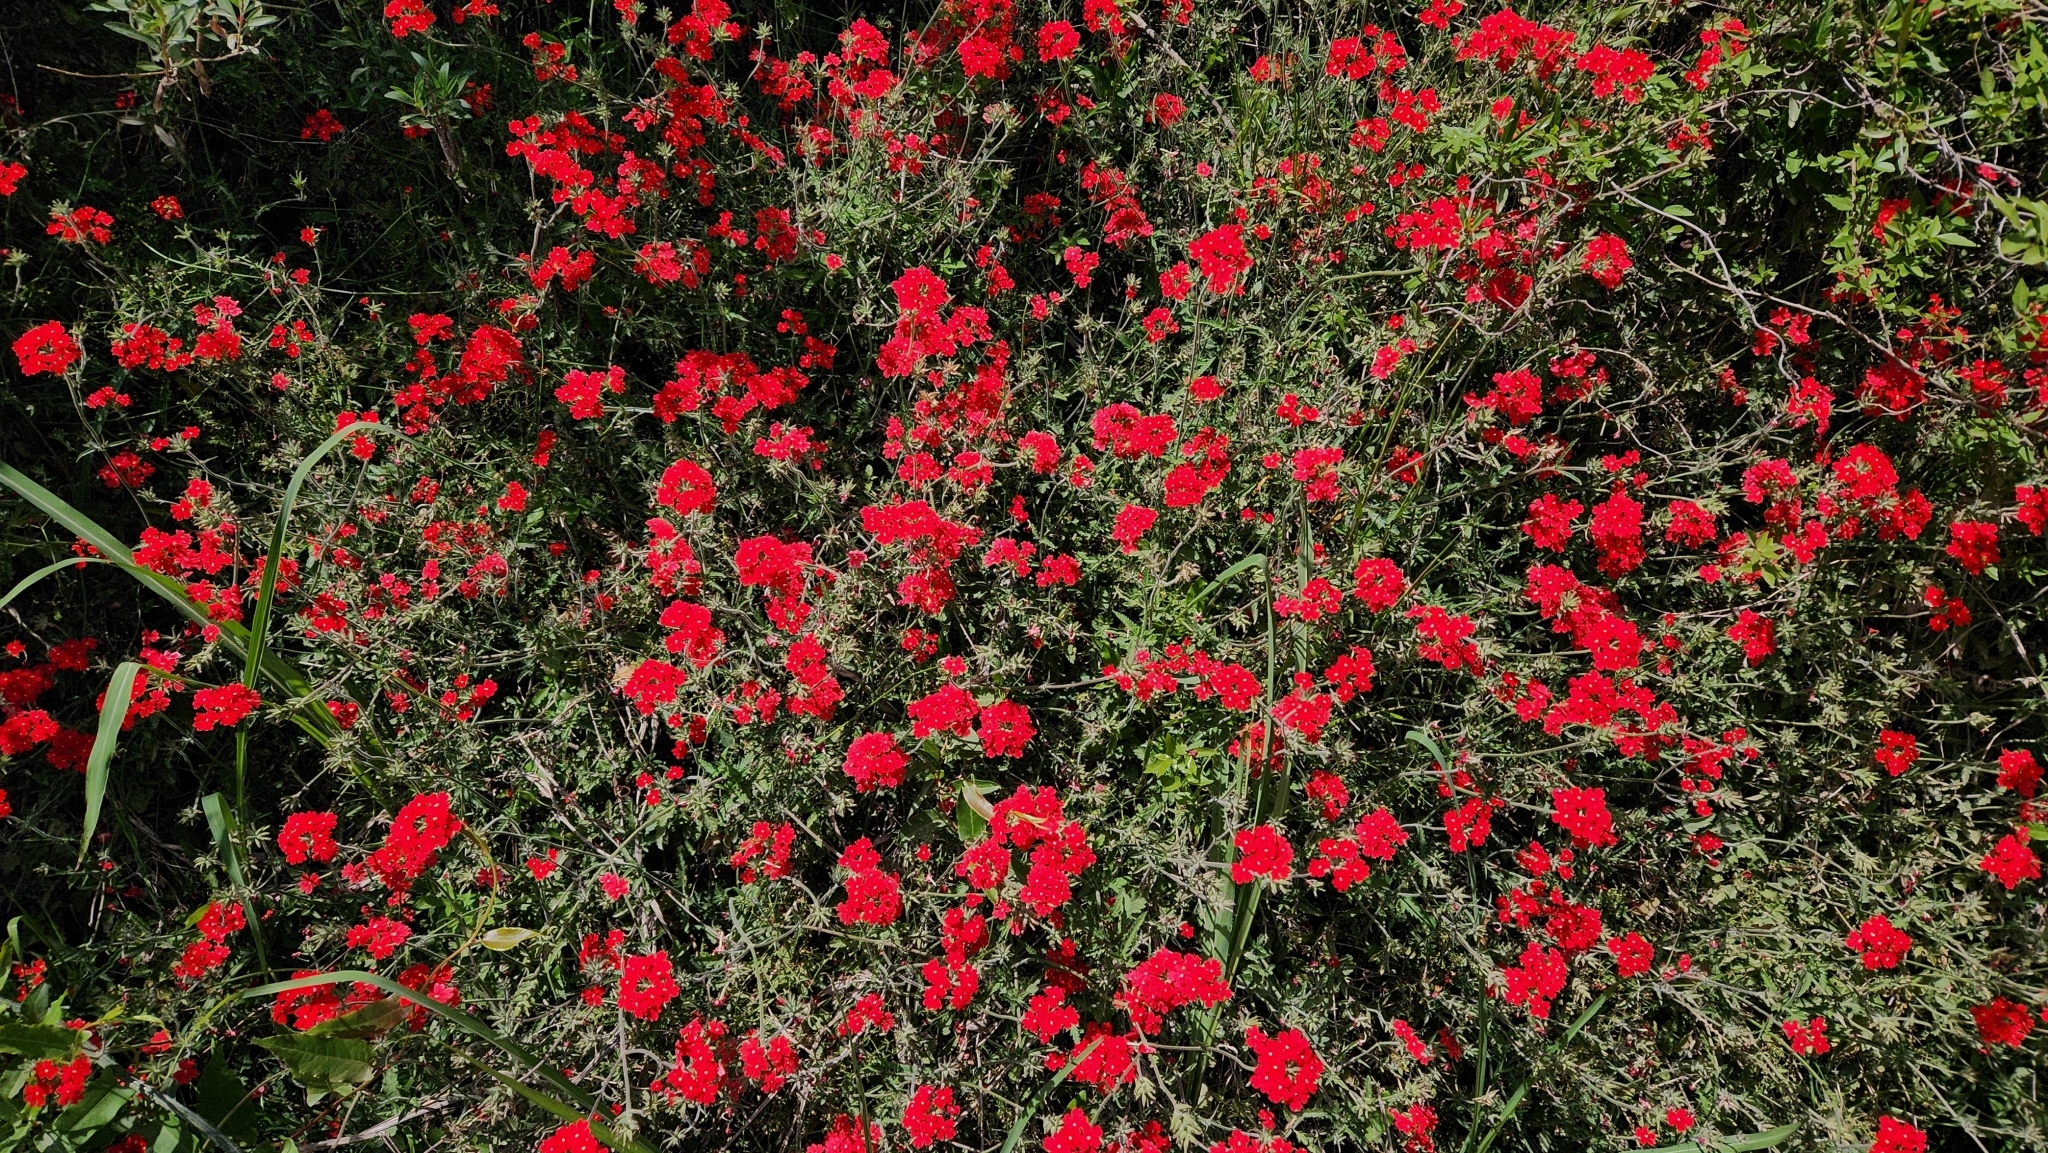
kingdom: Plantae
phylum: Tracheophyta
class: Magnoliopsida
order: Lamiales
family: Verbenaceae
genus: Verbena
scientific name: Verbena tweedieana
